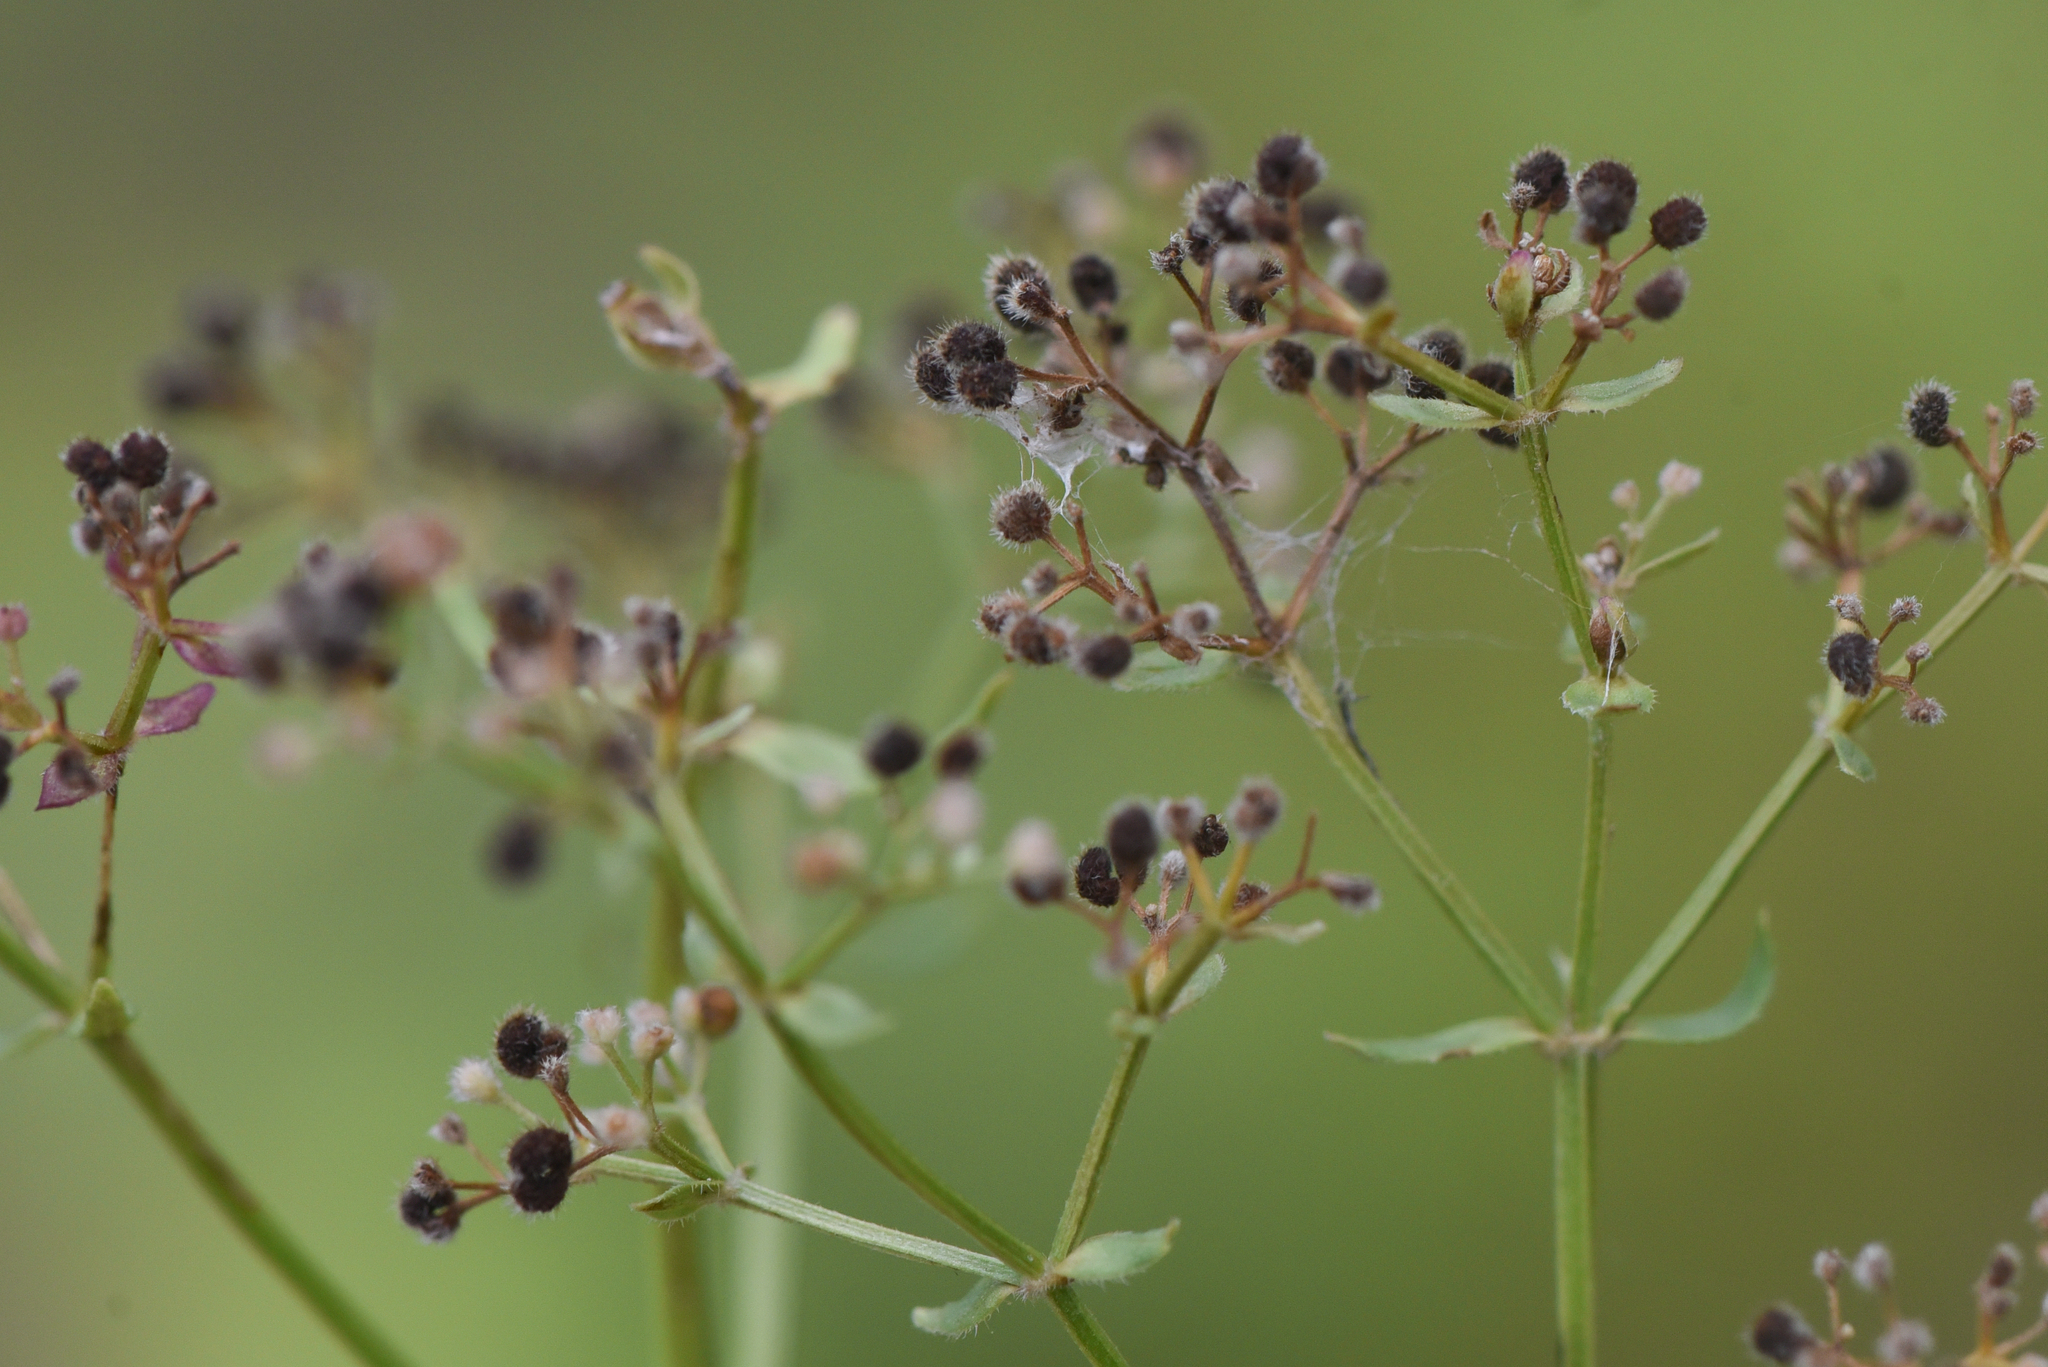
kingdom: Plantae
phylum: Tracheophyta
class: Magnoliopsida
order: Gentianales
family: Rubiaceae
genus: Galium
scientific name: Galium boreale
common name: Northern bedstraw
